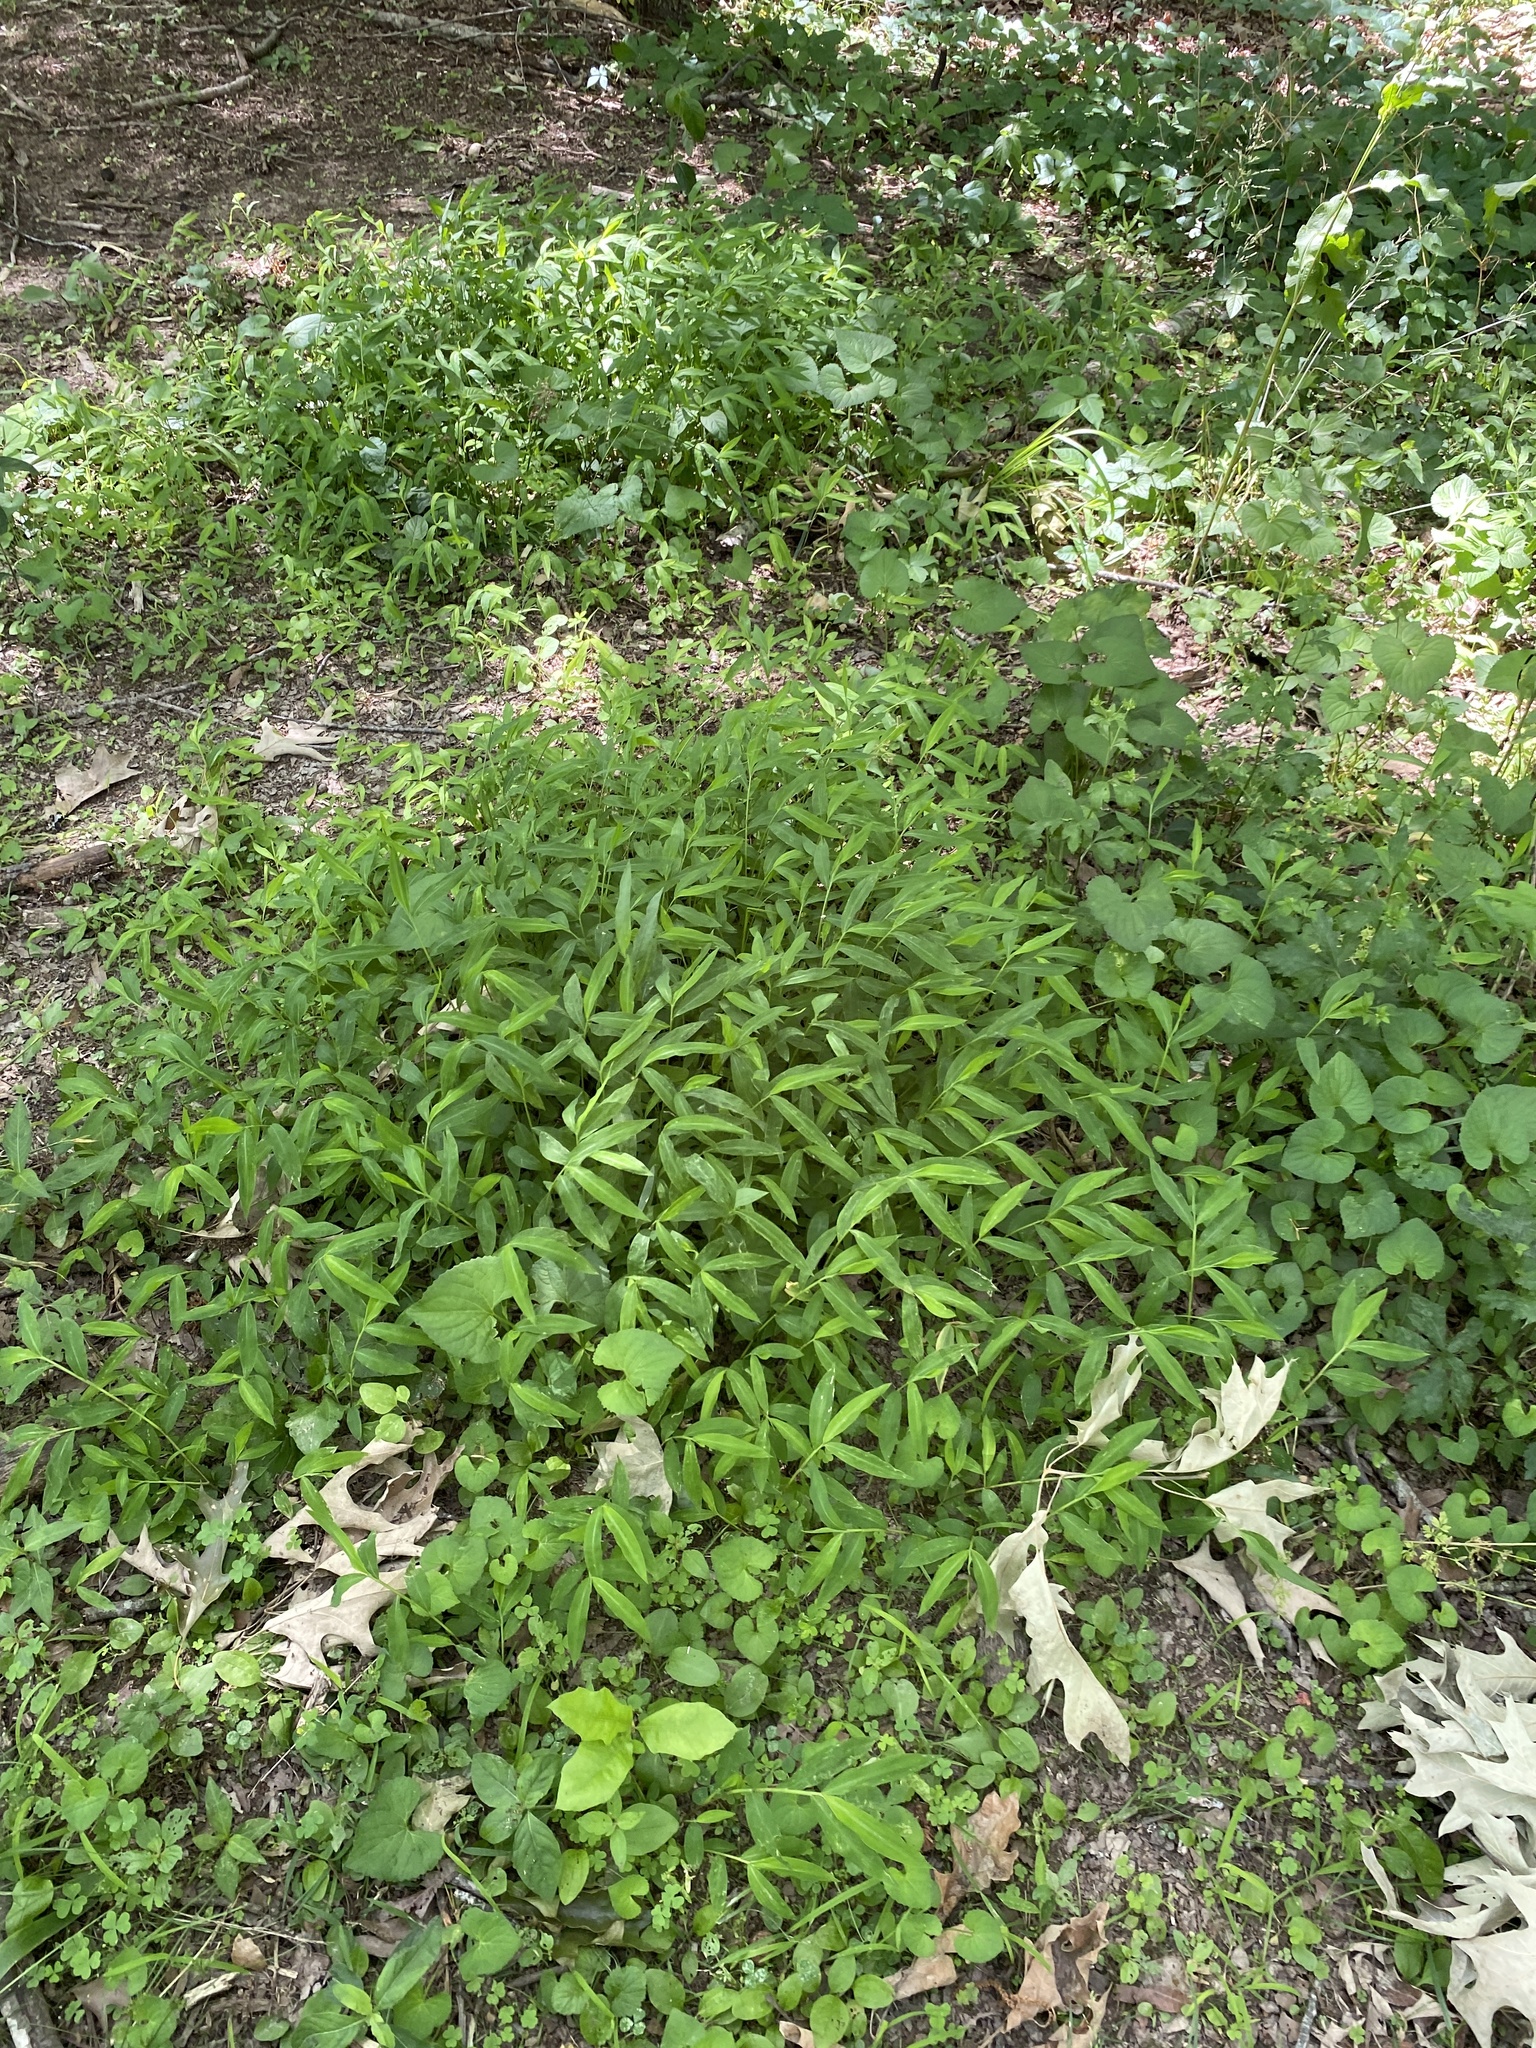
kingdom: Plantae
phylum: Tracheophyta
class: Liliopsida
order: Poales
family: Poaceae
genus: Microstegium
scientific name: Microstegium vimineum
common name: Japanese stiltgrass
